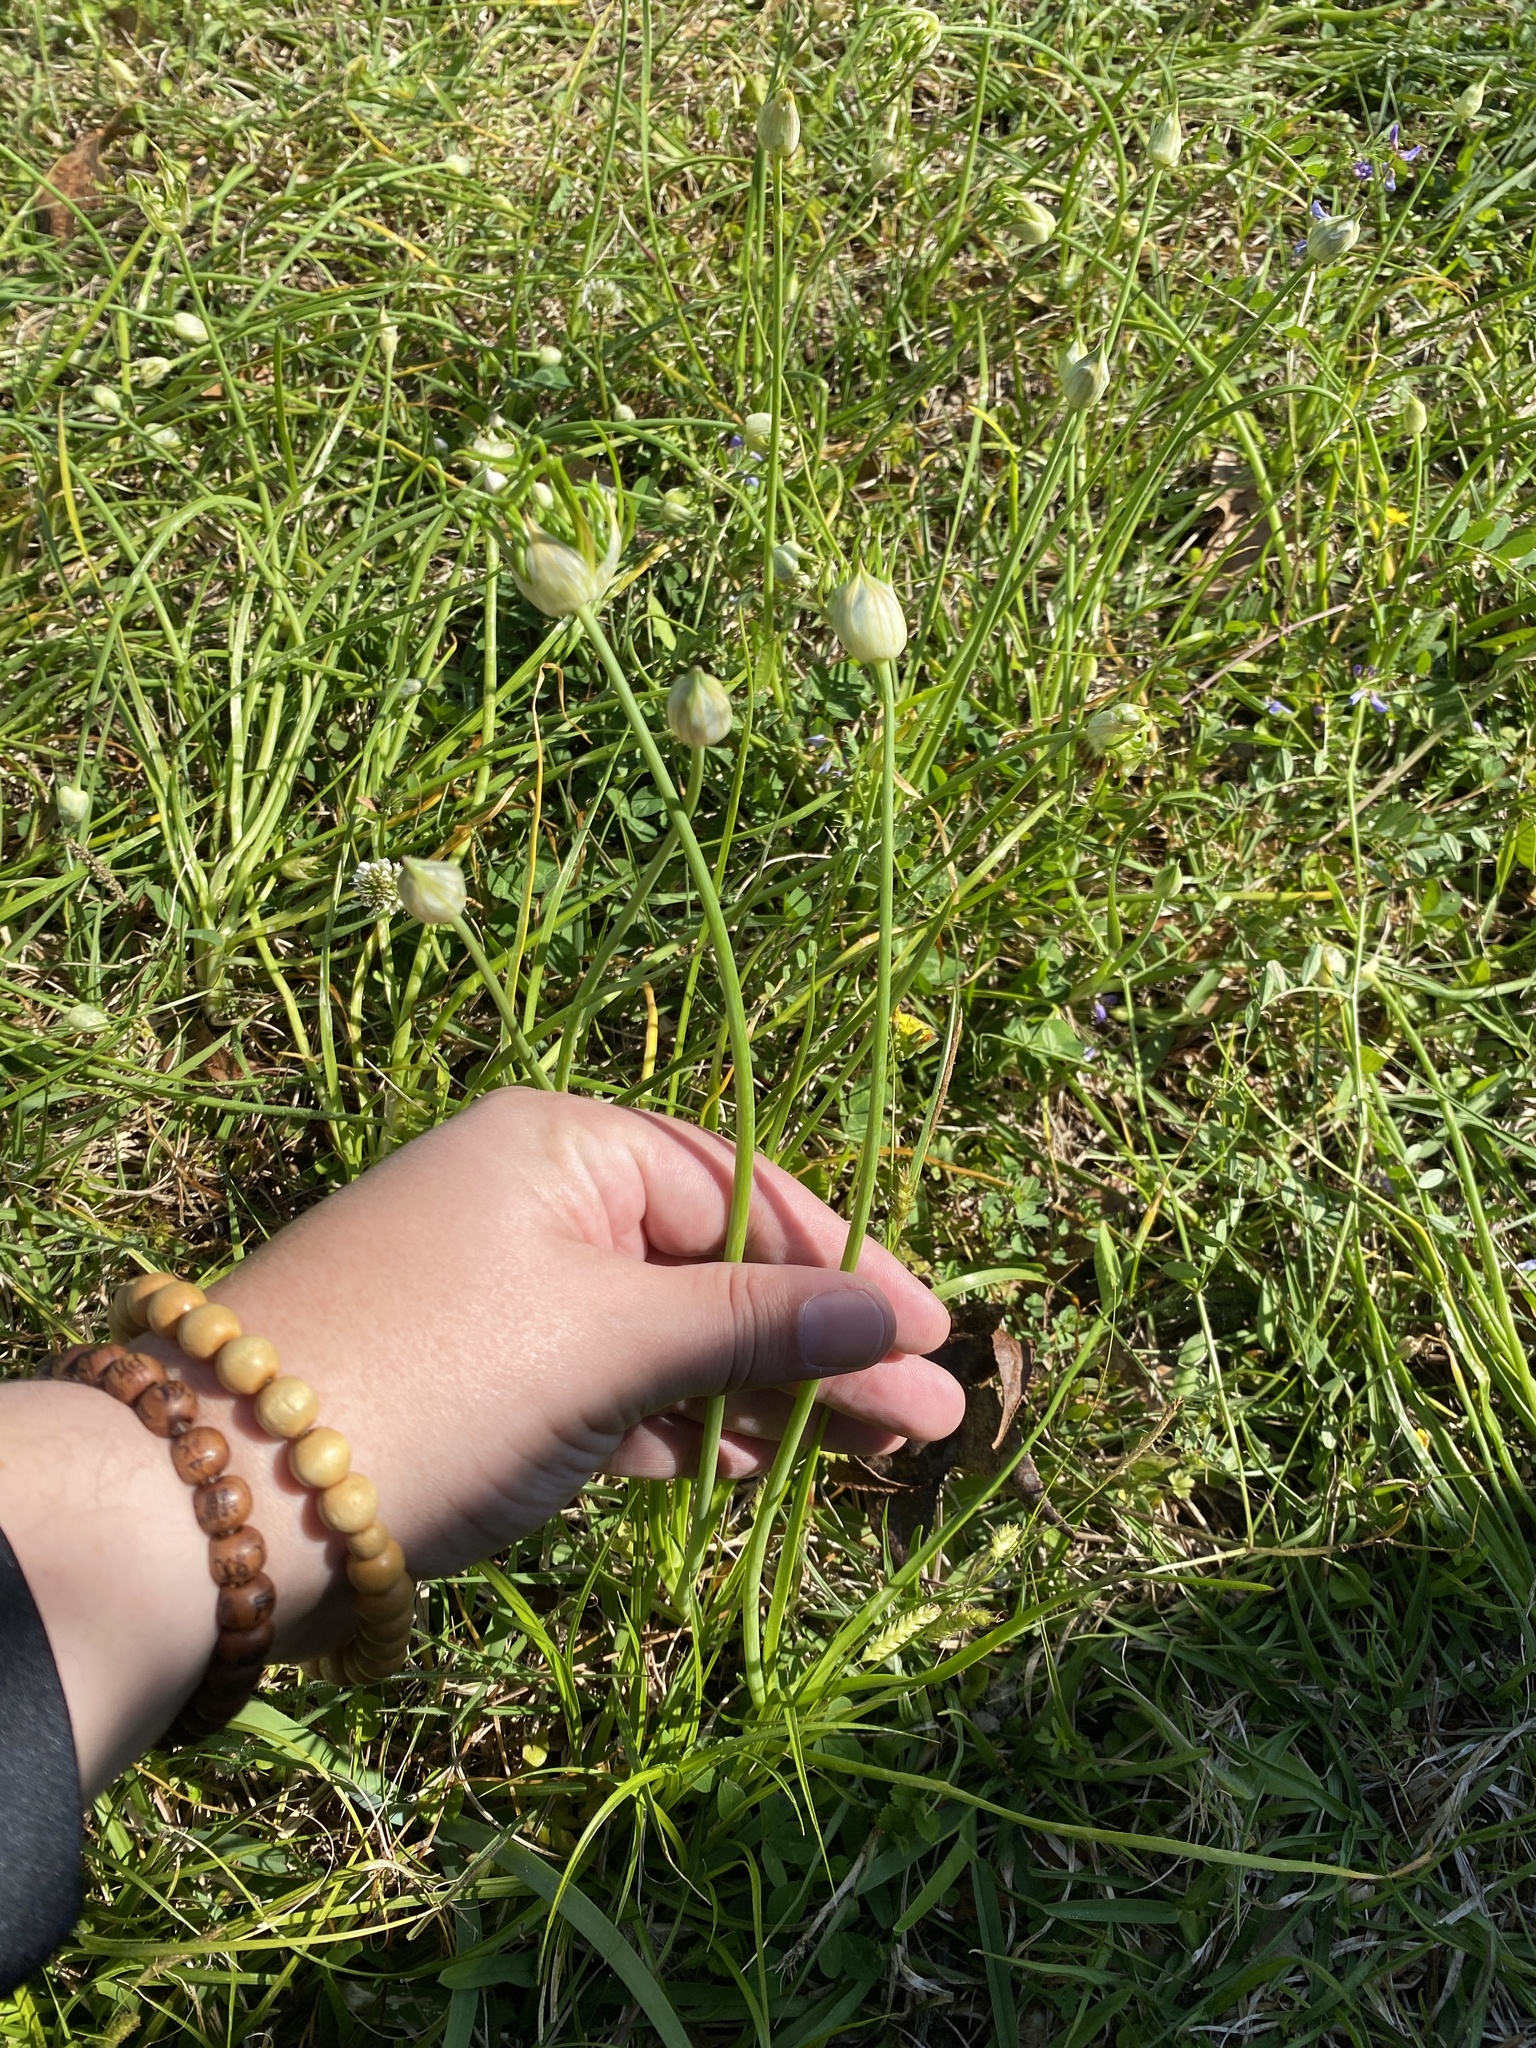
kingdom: Plantae
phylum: Tracheophyta
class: Liliopsida
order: Asparagales
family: Amaryllidaceae
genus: Allium
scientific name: Allium canadense
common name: Meadow garlic
